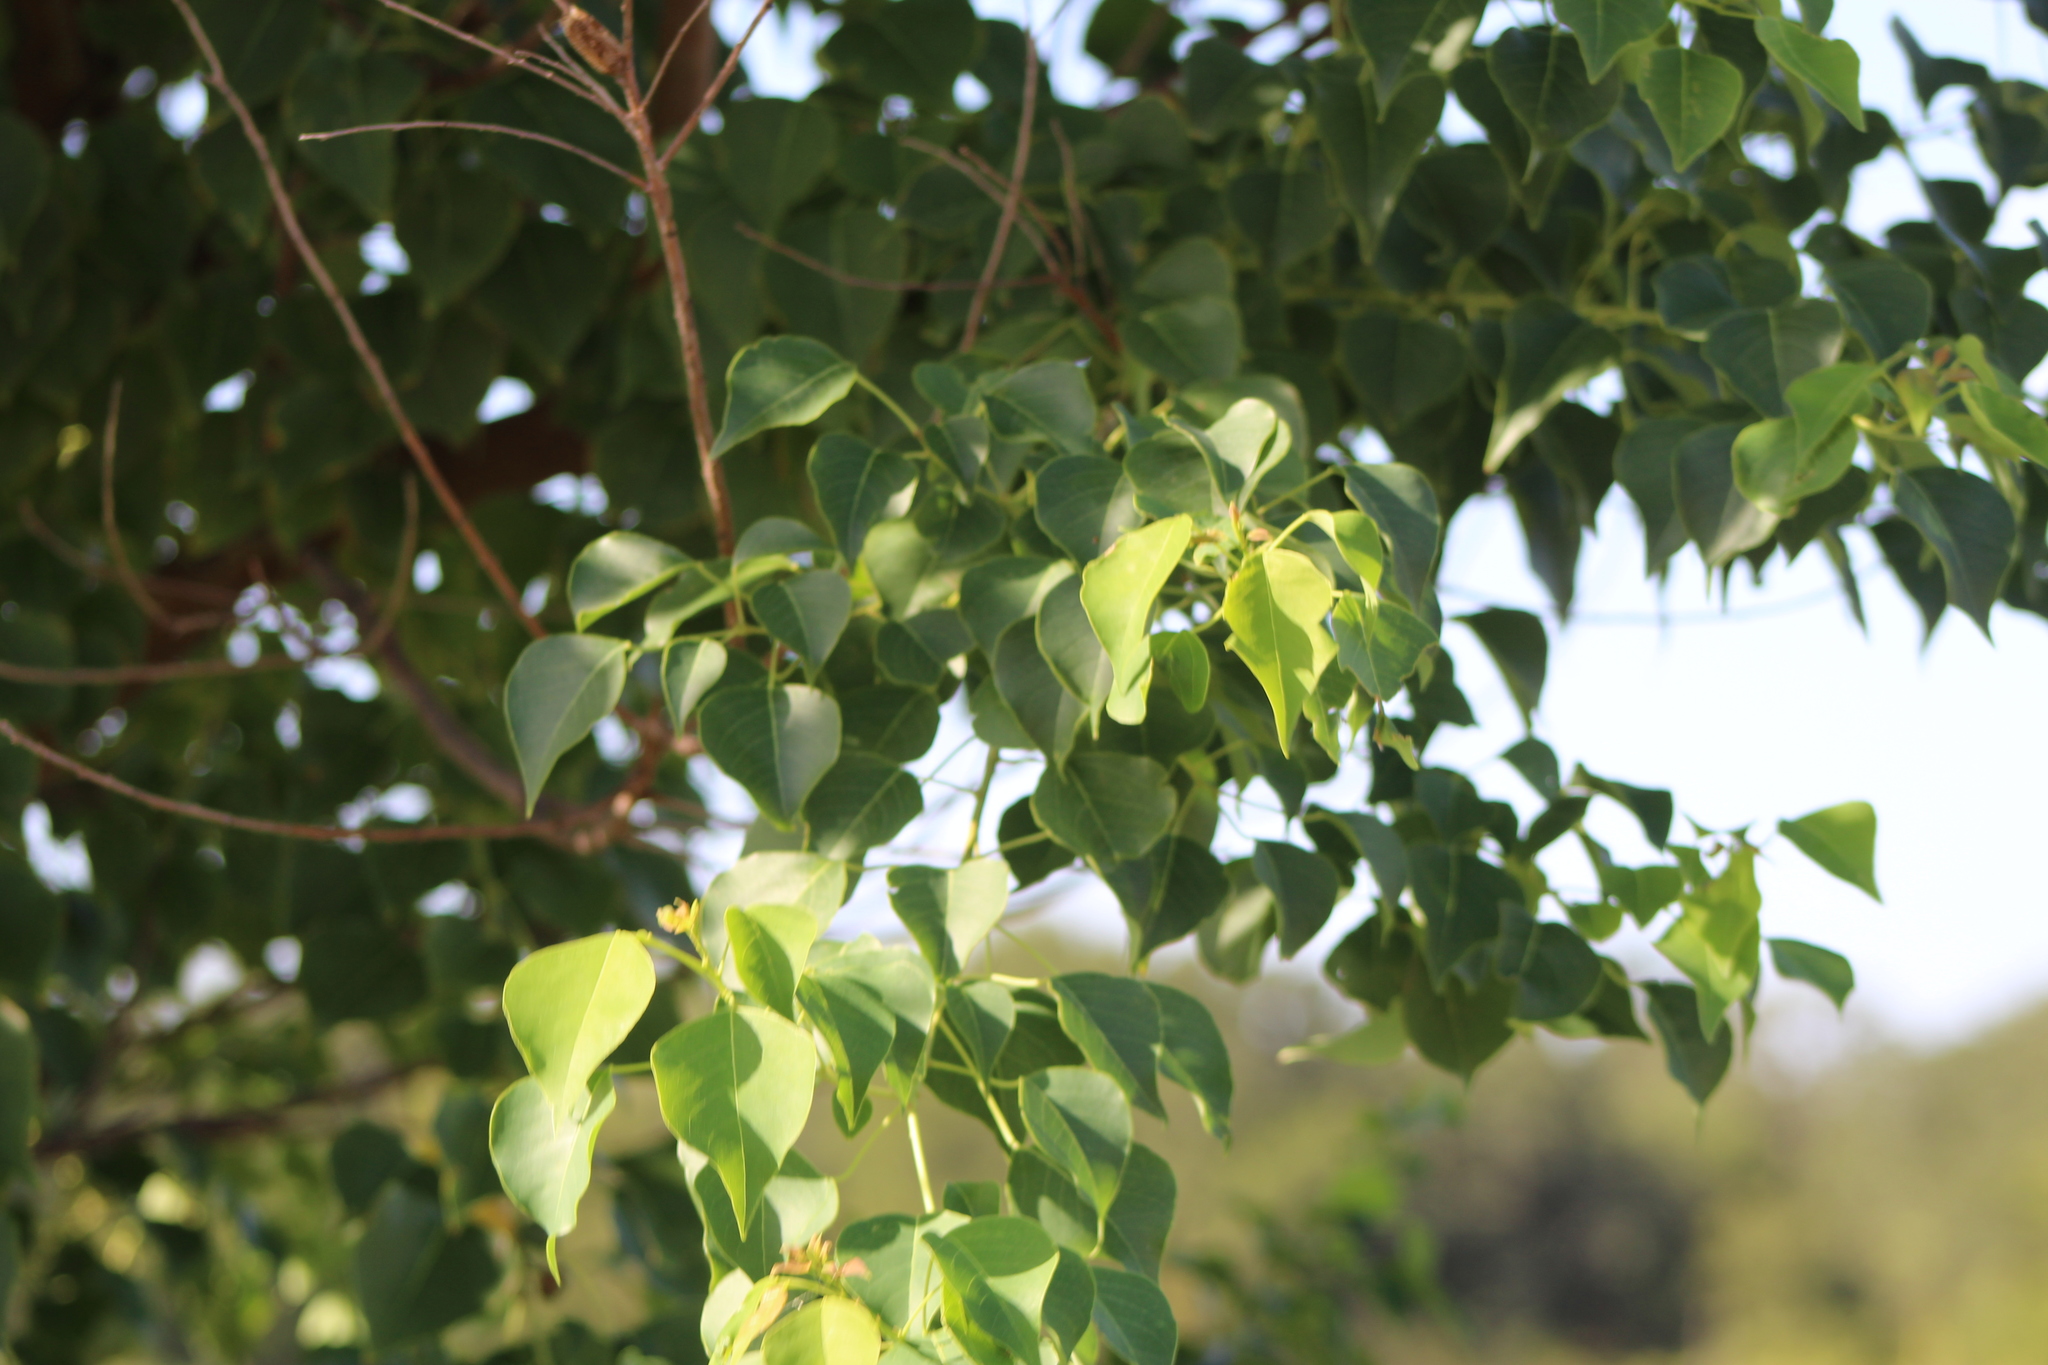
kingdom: Plantae
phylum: Tracheophyta
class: Magnoliopsida
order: Malpighiales
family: Euphorbiaceae
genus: Triadica
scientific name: Triadica sebifera
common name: Chinese tallow
